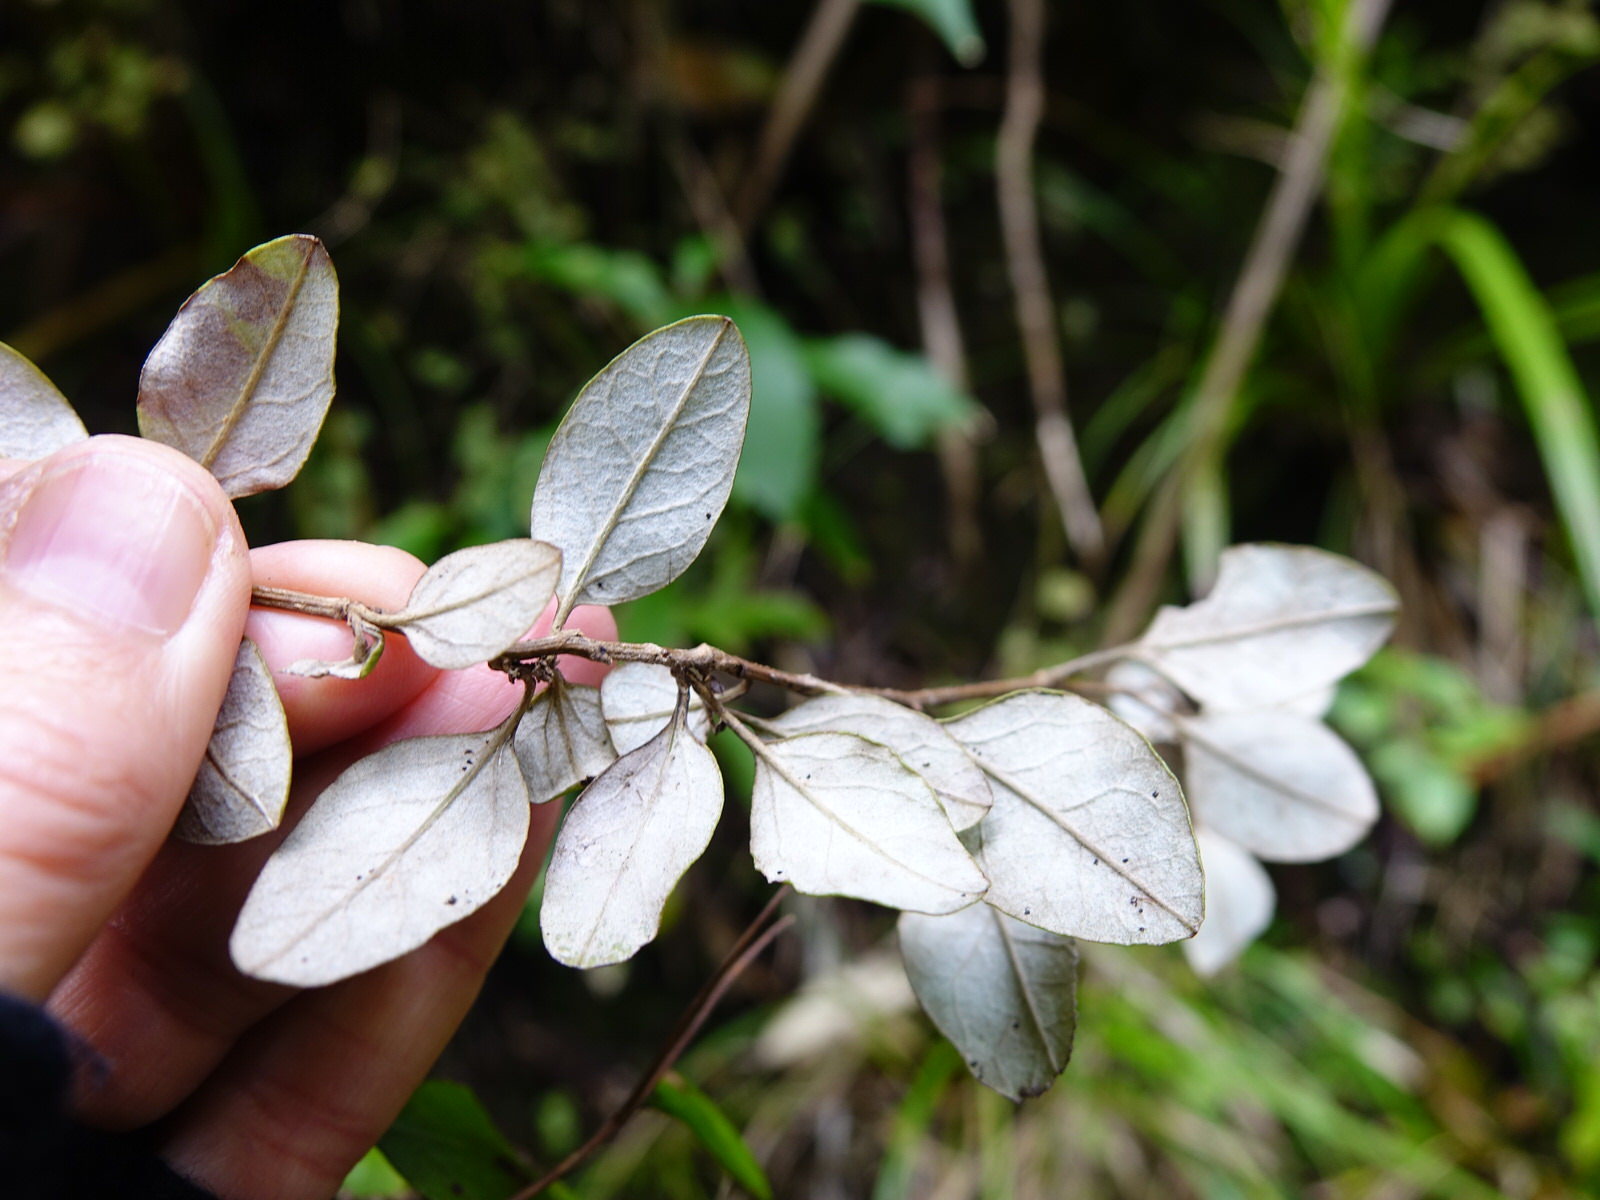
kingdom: Plantae
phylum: Tracheophyta
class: Magnoliopsida
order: Asterales
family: Asteraceae
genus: Ozothamnus
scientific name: Ozothamnus glomeratus
